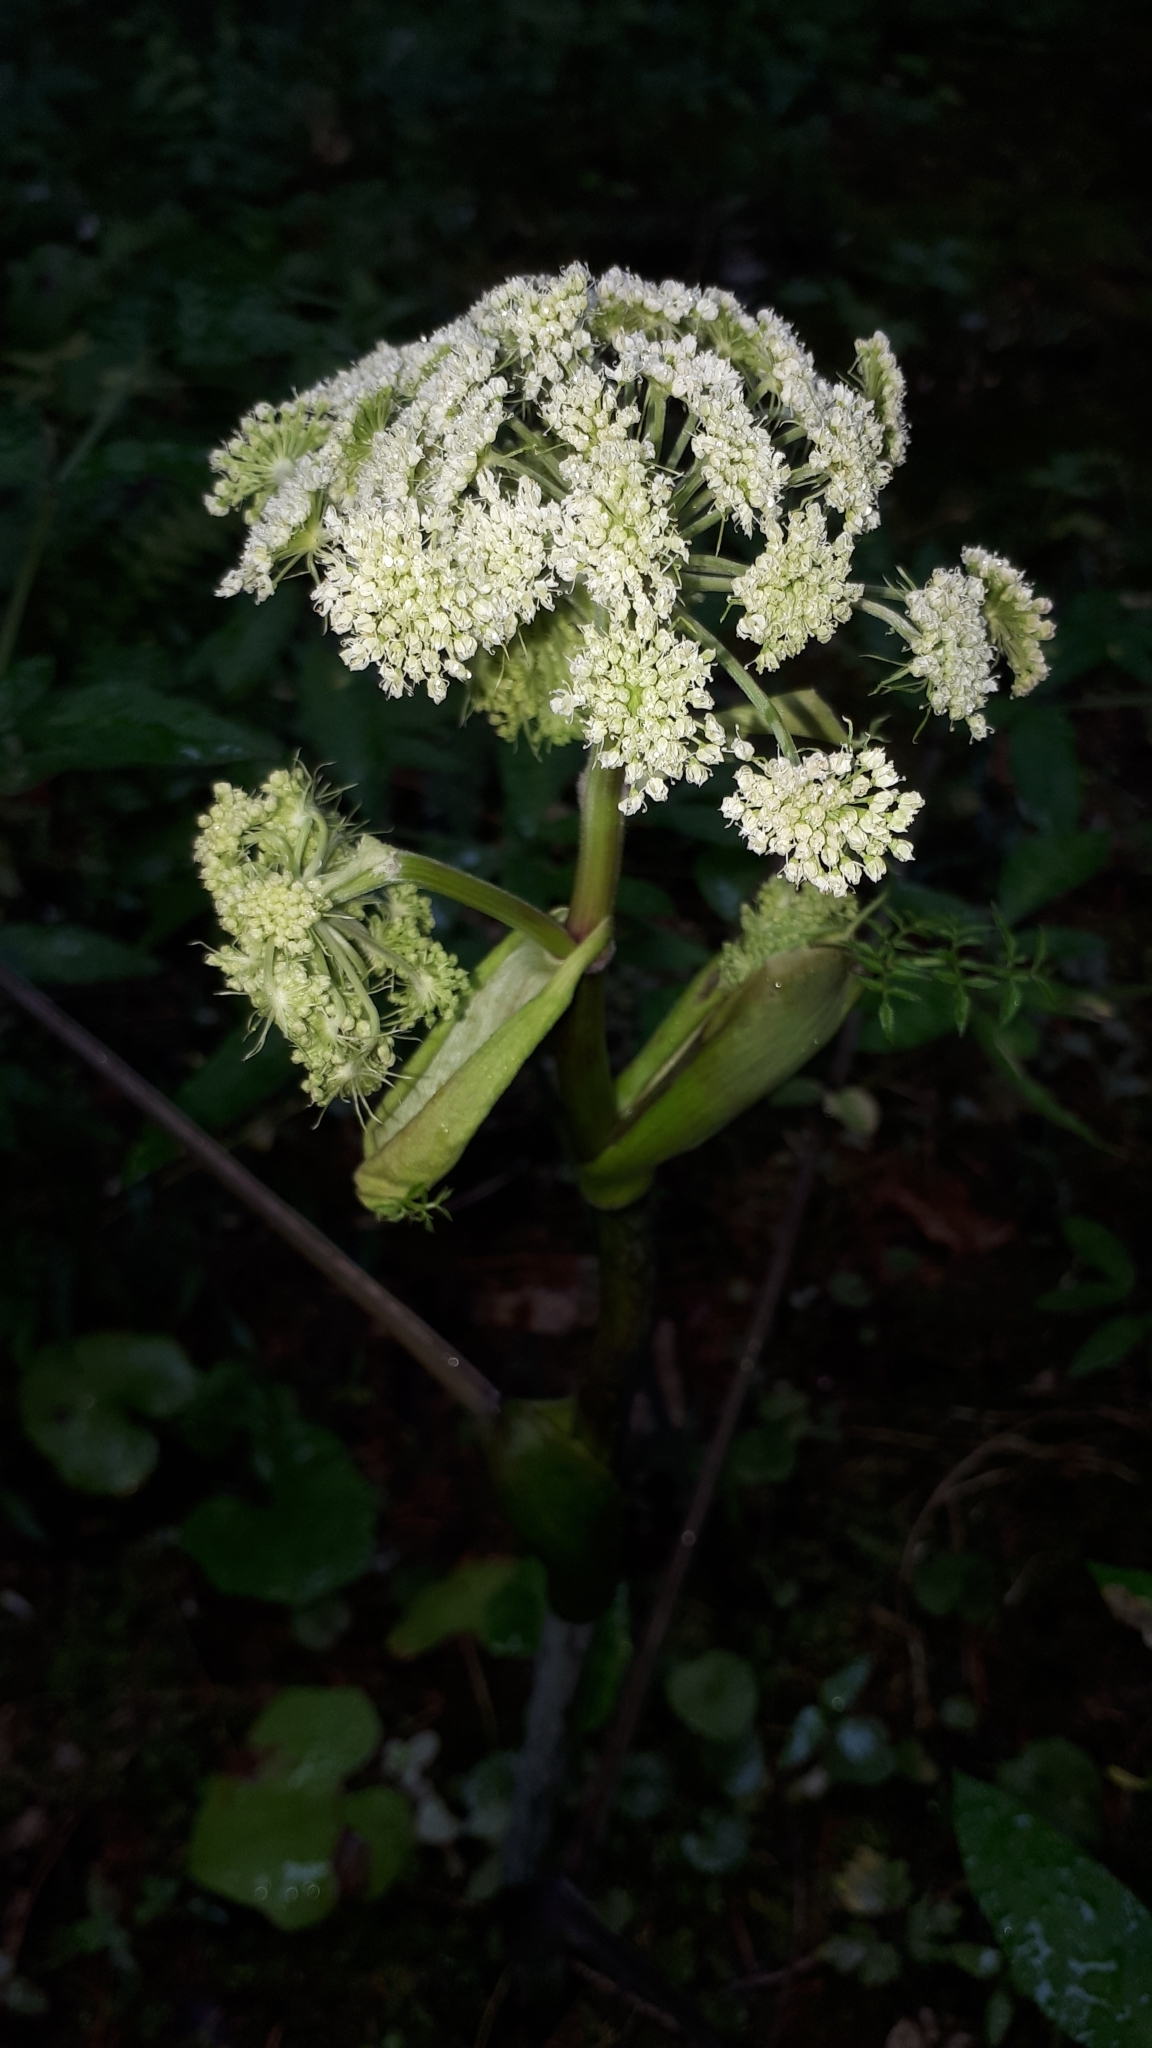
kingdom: Plantae
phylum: Tracheophyta
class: Magnoliopsida
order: Apiales
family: Apiaceae
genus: Angelica
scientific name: Angelica sylvestris
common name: Wild angelica
